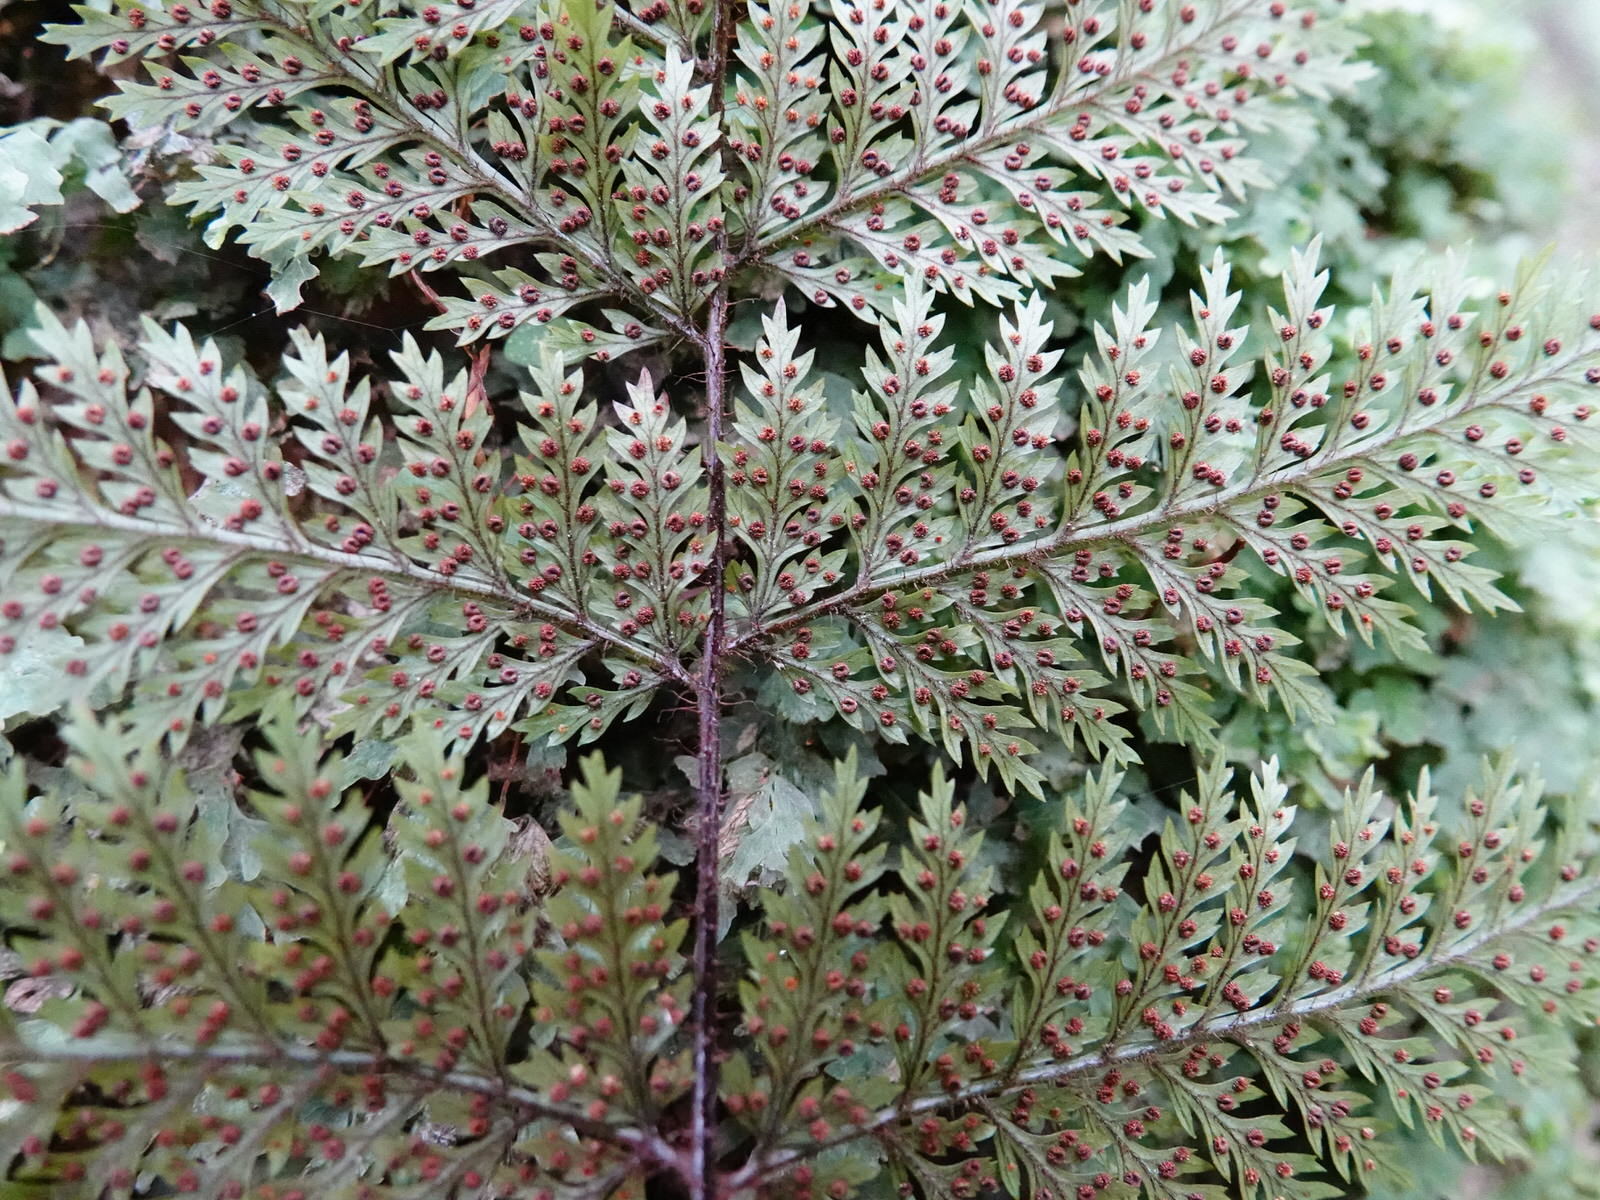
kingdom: Plantae
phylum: Tracheophyta
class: Polypodiopsida
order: Polypodiales
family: Dryopteridaceae
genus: Lastreopsis
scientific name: Lastreopsis hispida
